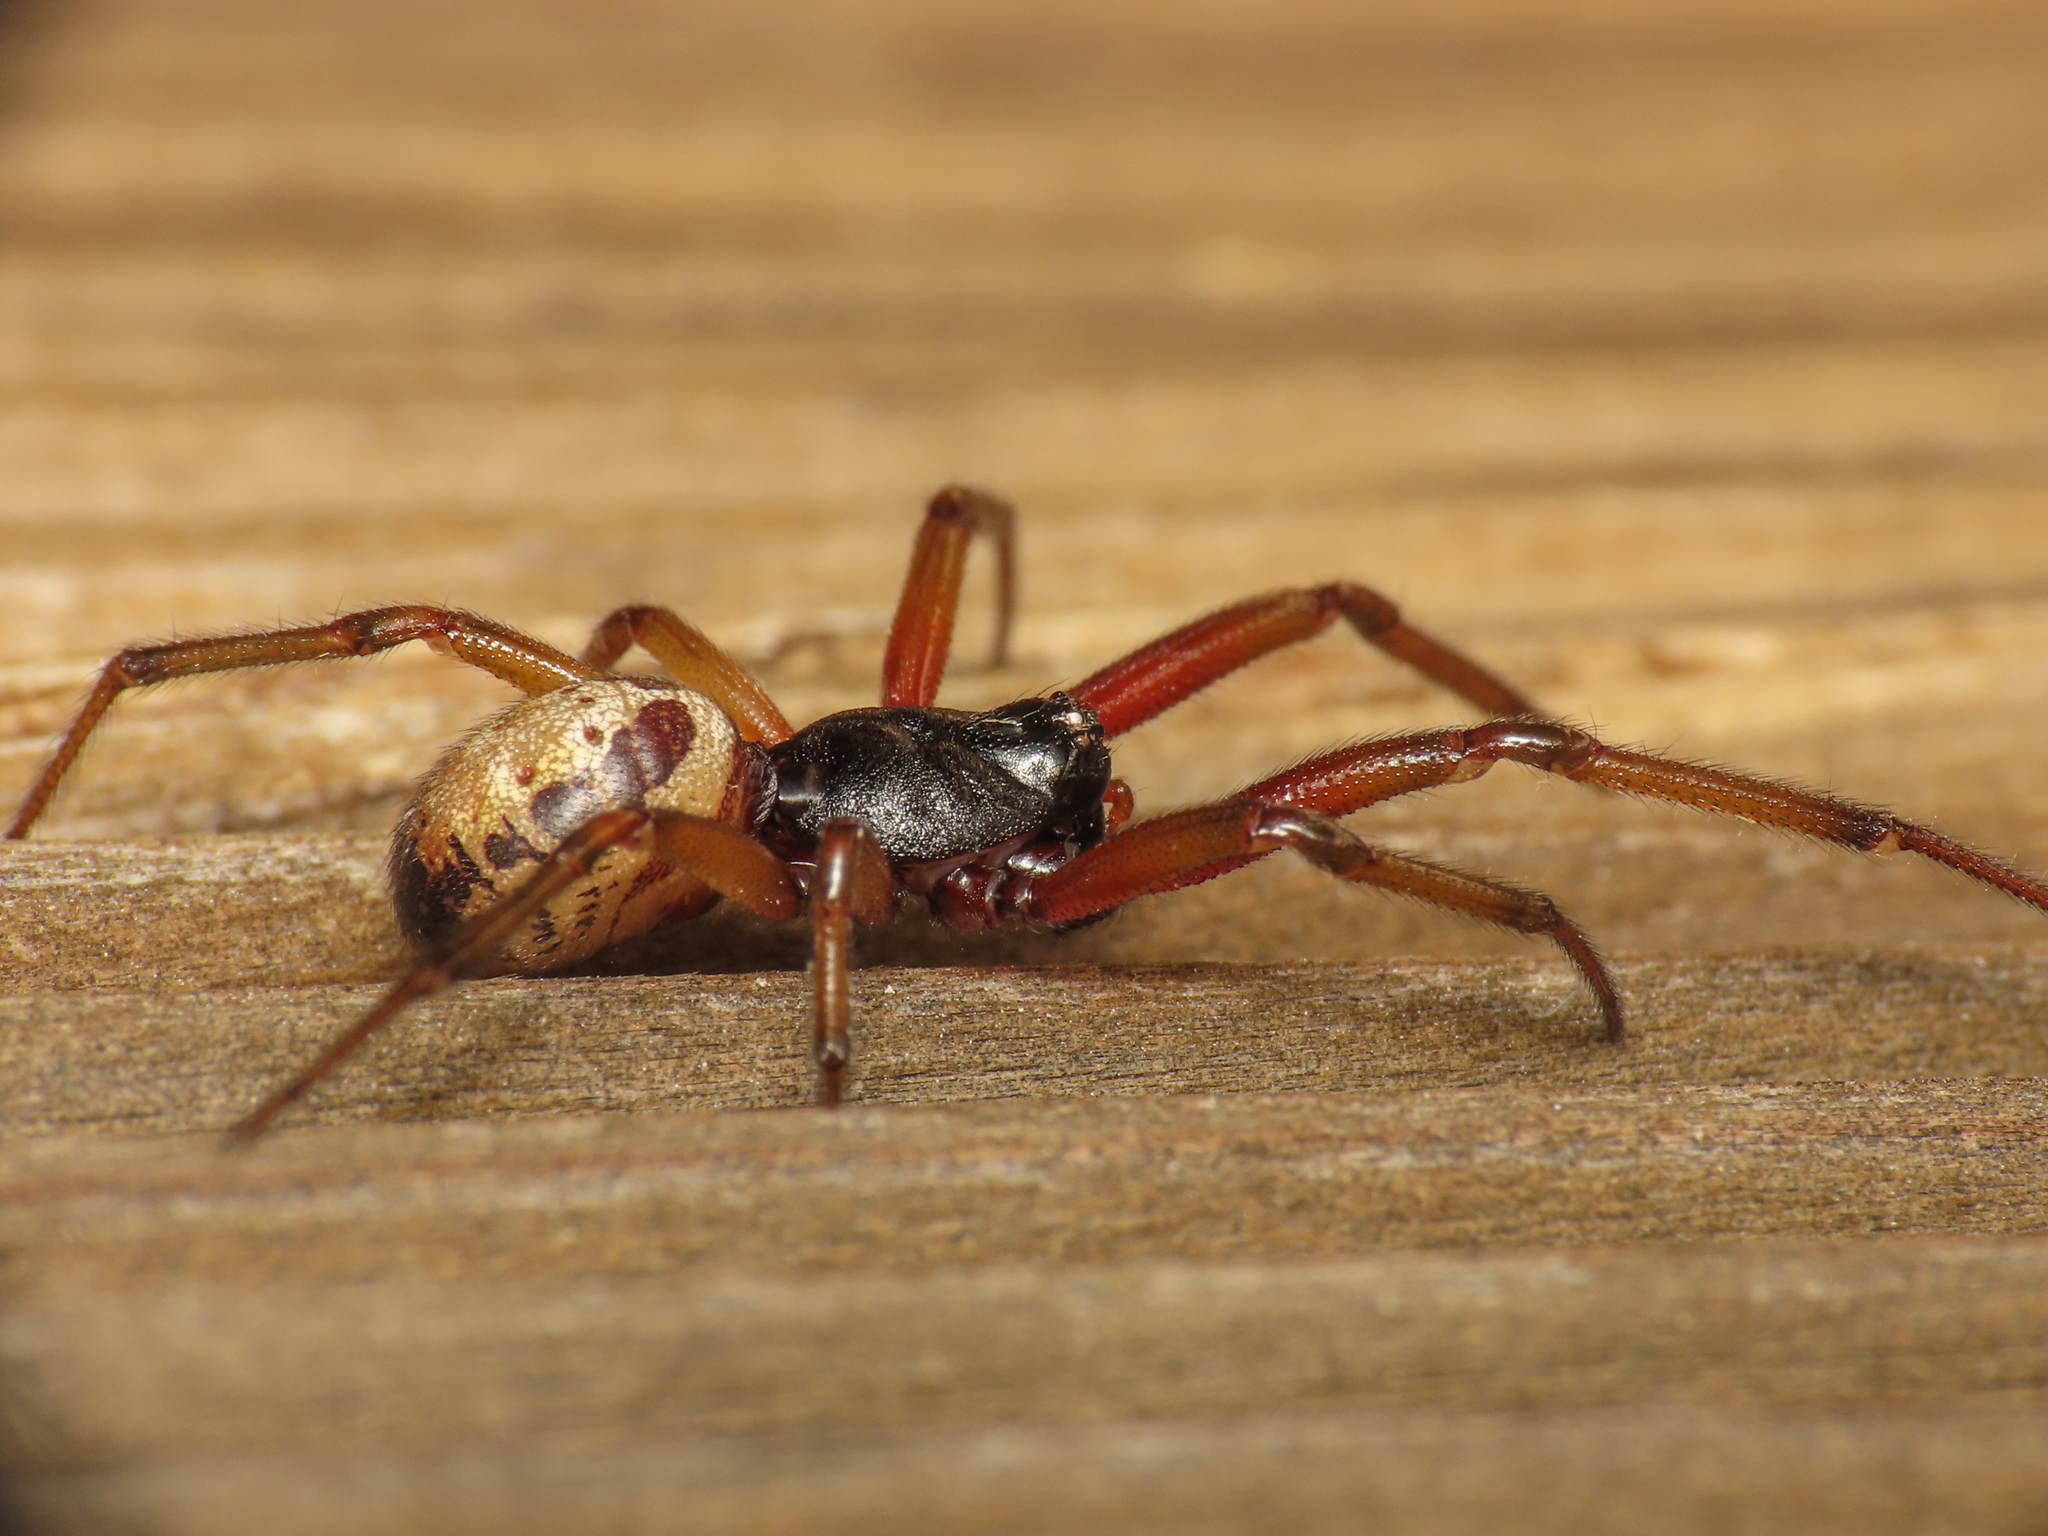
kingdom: Animalia
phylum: Arthropoda
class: Arachnida
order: Araneae
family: Theridiidae
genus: Steatoda
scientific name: Steatoda nobilis
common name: Cobweb weaver
